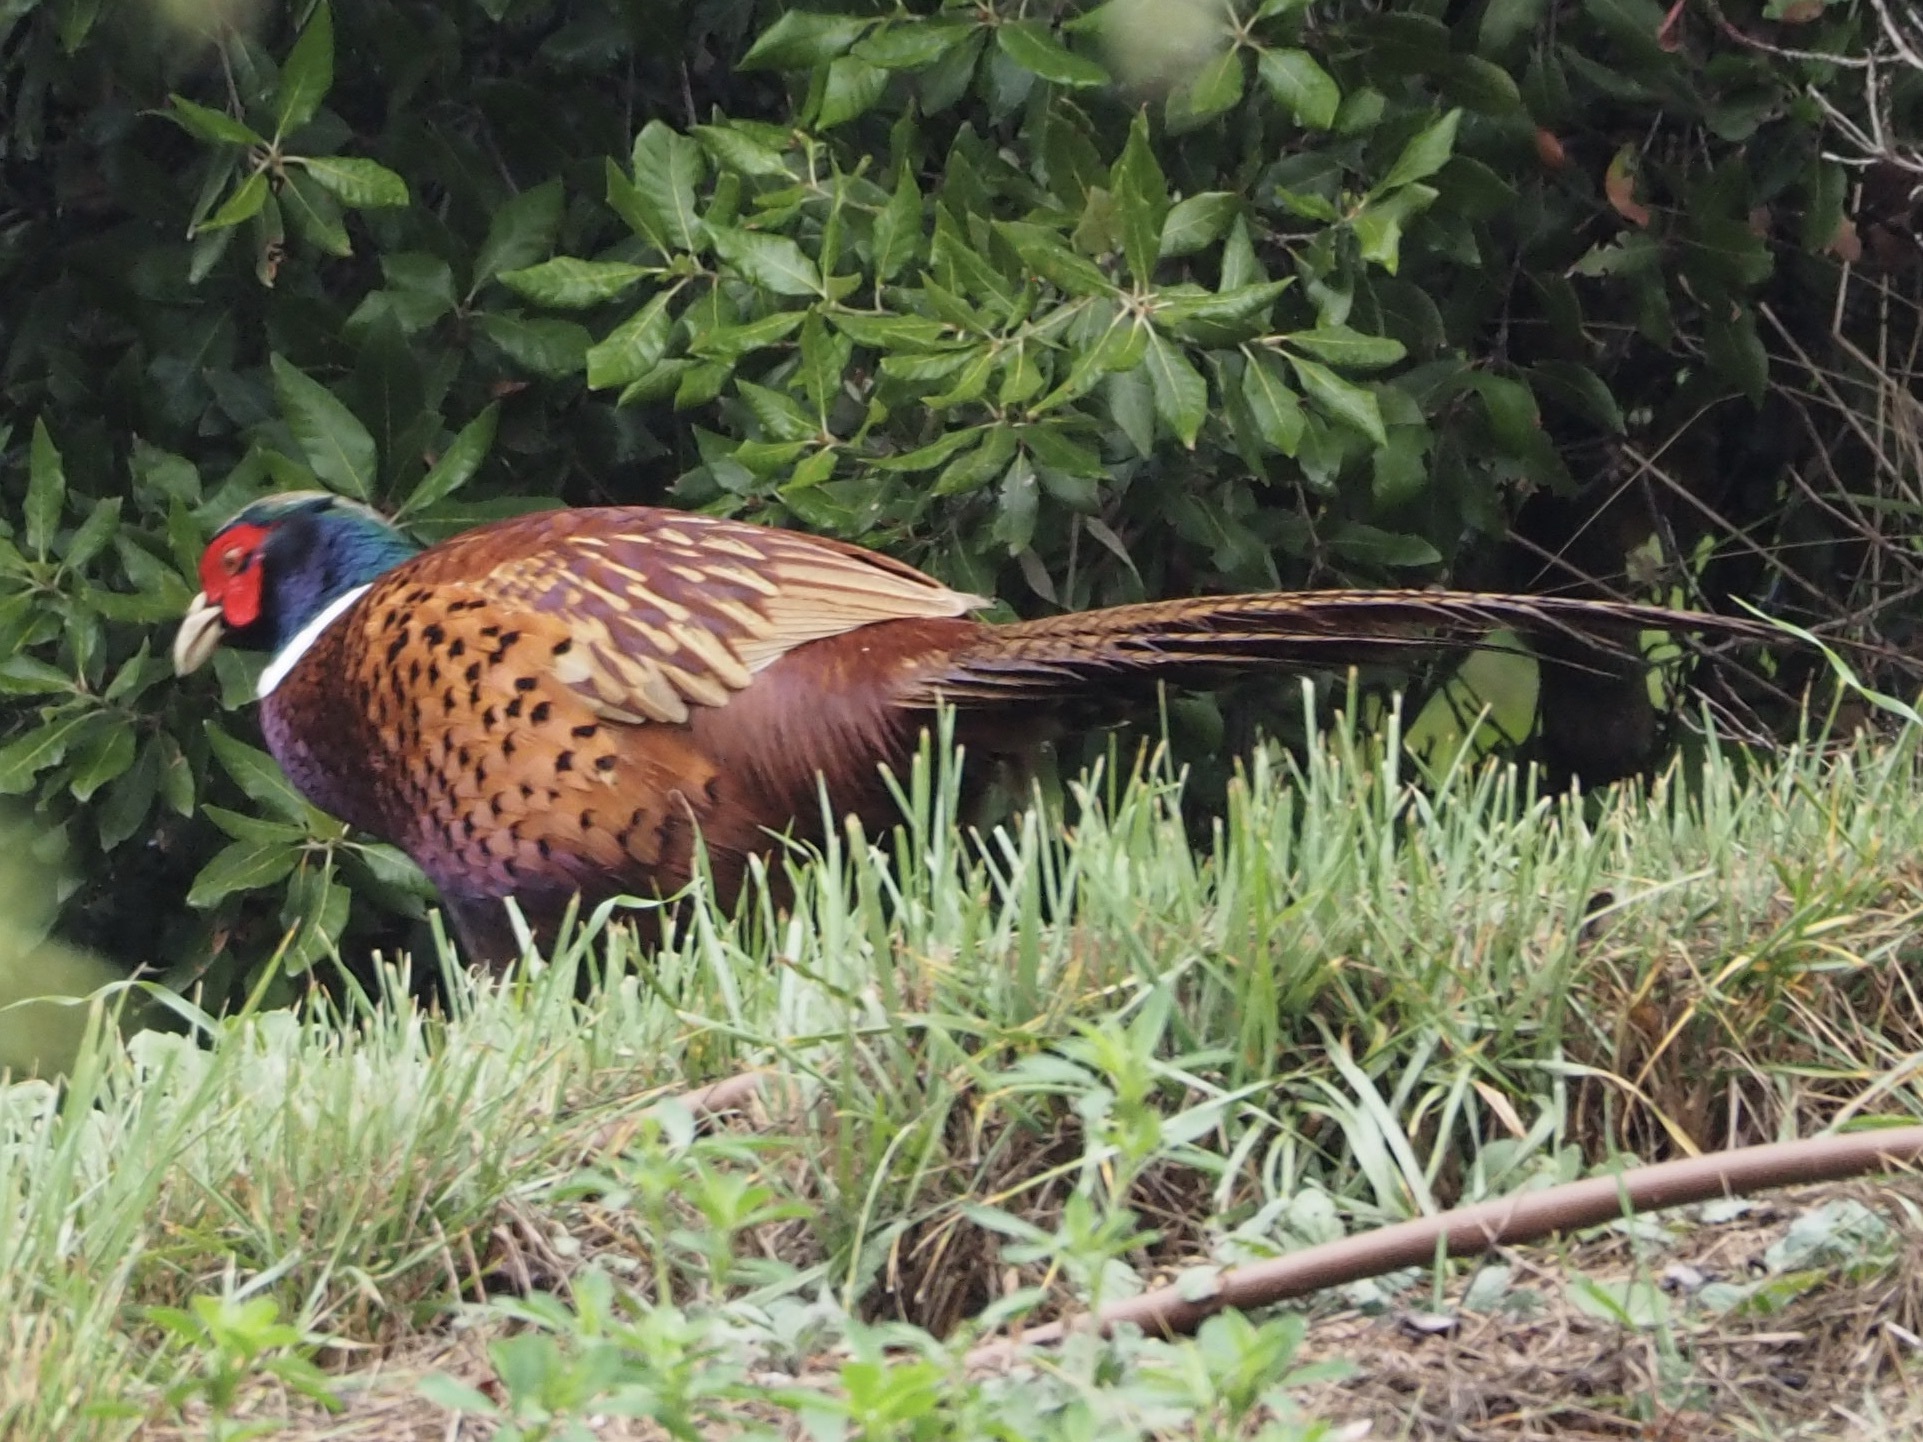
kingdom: Animalia
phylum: Chordata
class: Aves
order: Galliformes
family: Phasianidae
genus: Phasianus
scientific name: Phasianus colchicus
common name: Common pheasant
